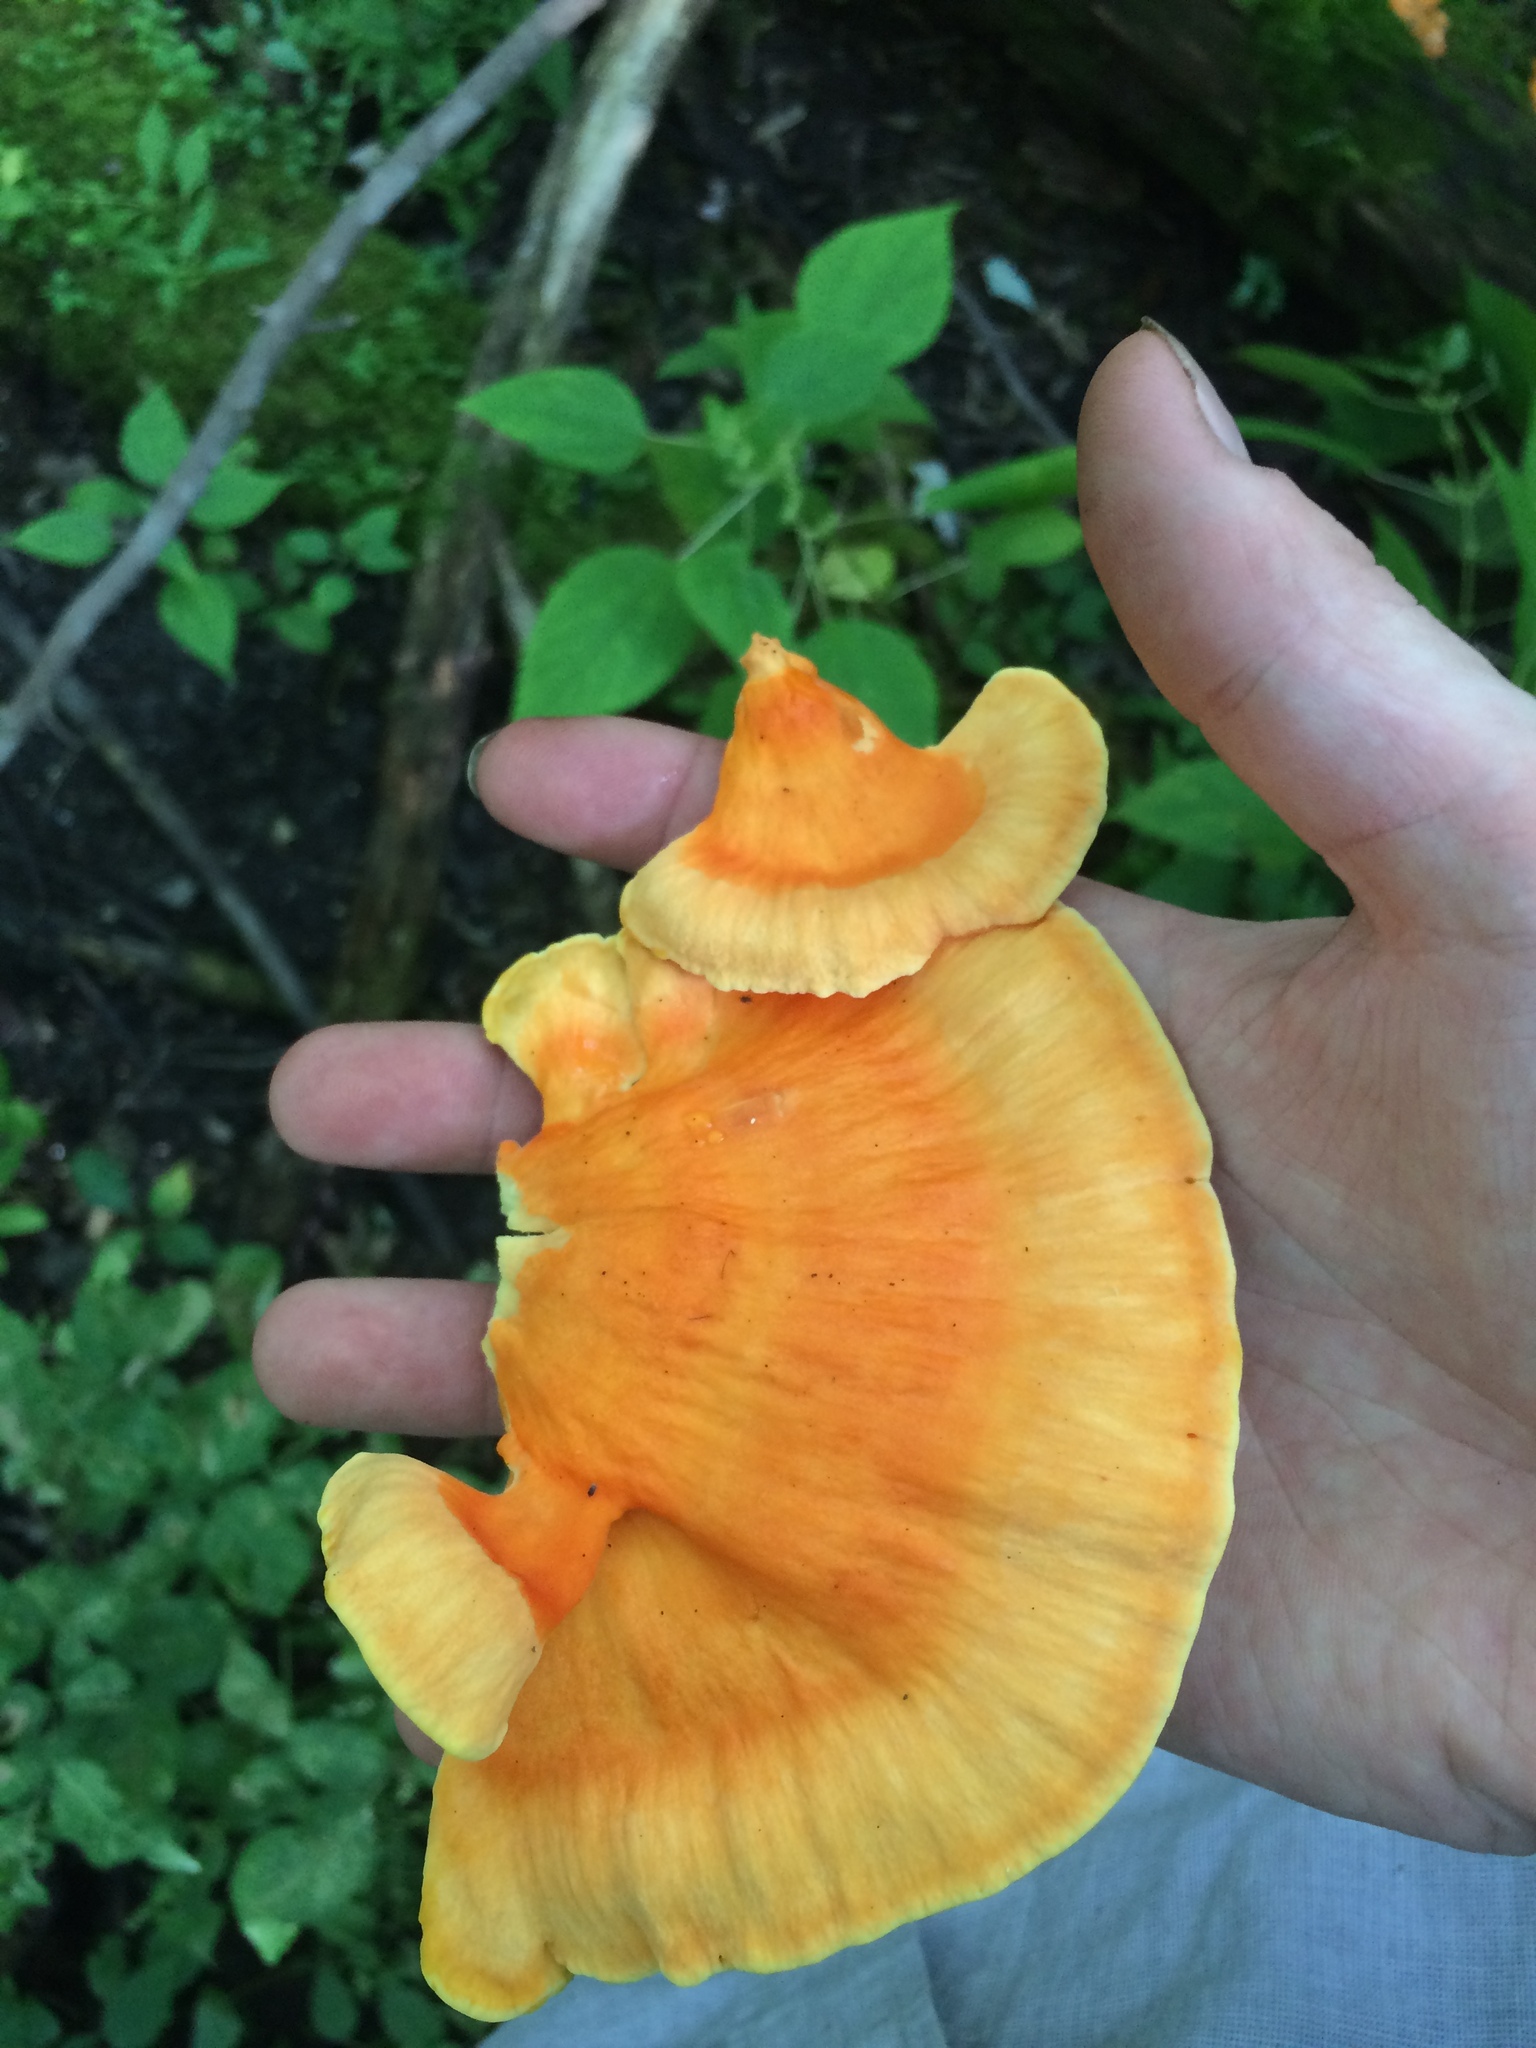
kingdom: Fungi
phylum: Basidiomycota
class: Agaricomycetes
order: Polyporales
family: Laetiporaceae
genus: Laetiporus
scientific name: Laetiporus sulphureus
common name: Chicken of the woods
